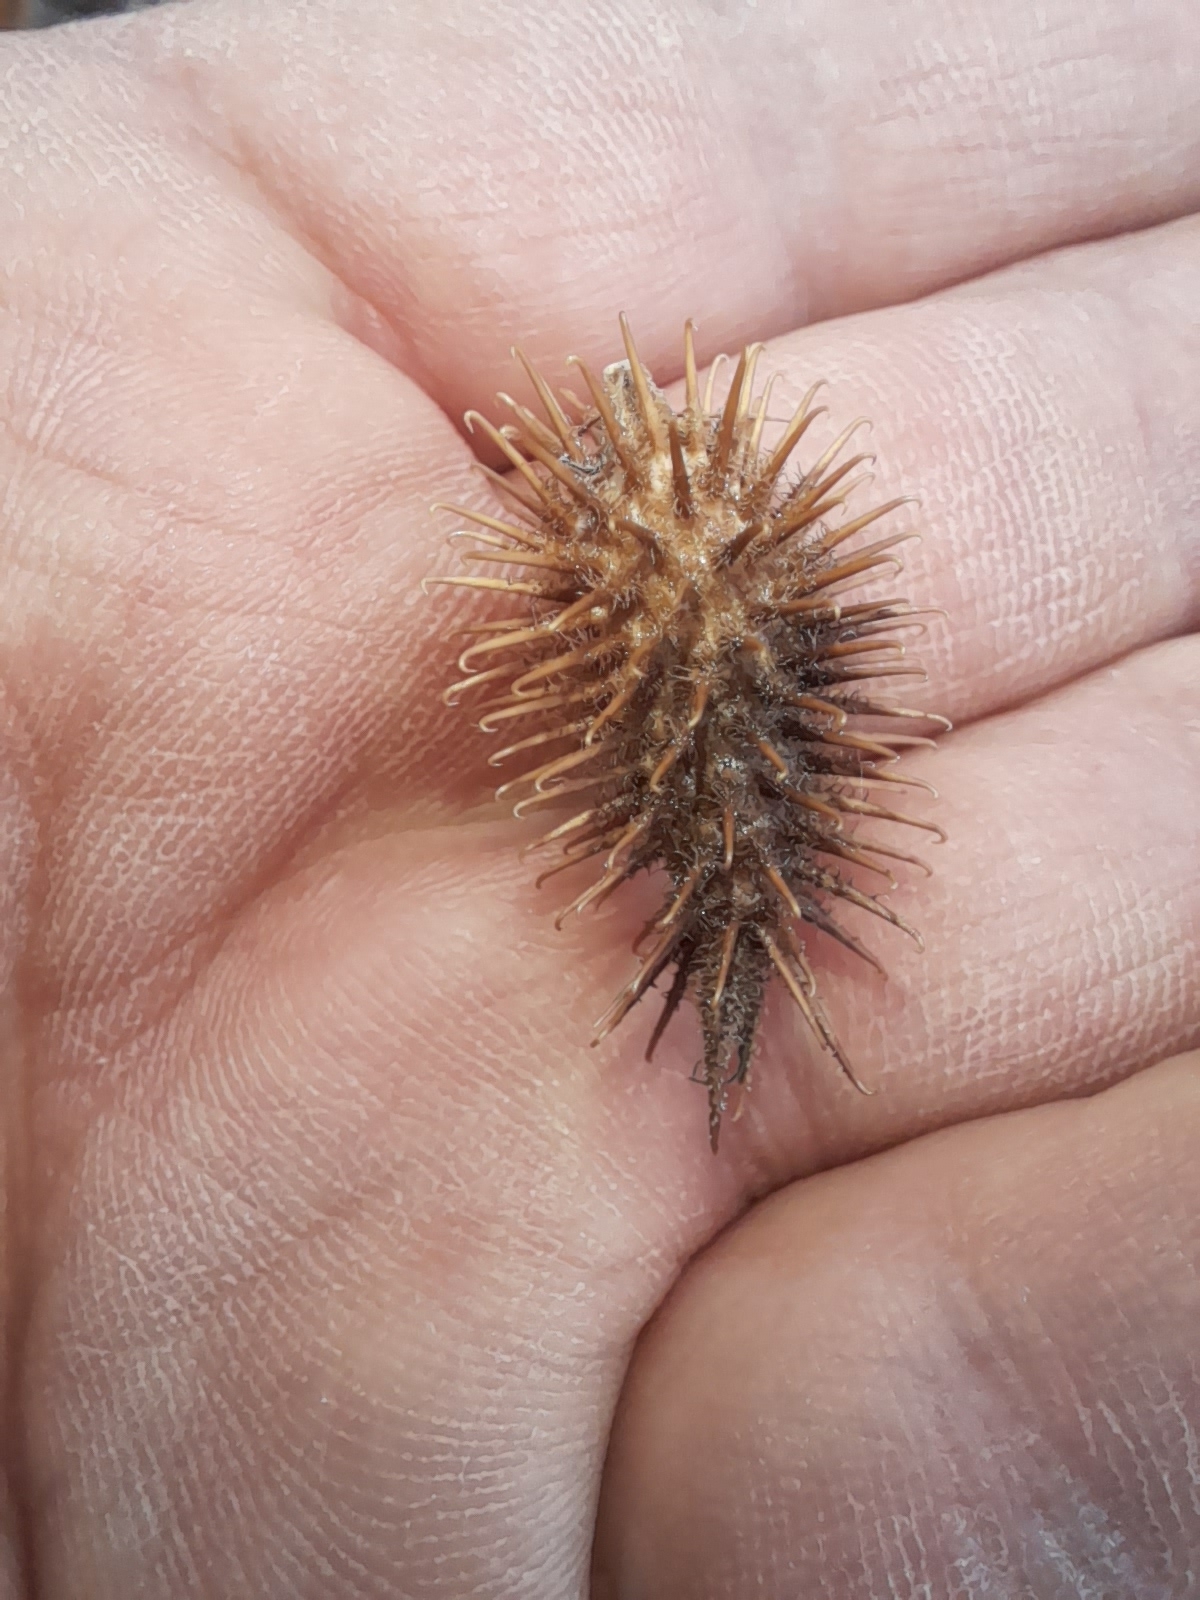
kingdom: Plantae
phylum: Tracheophyta
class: Magnoliopsida
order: Asterales
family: Asteraceae
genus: Xanthium
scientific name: Xanthium orientale
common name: Californian burr
